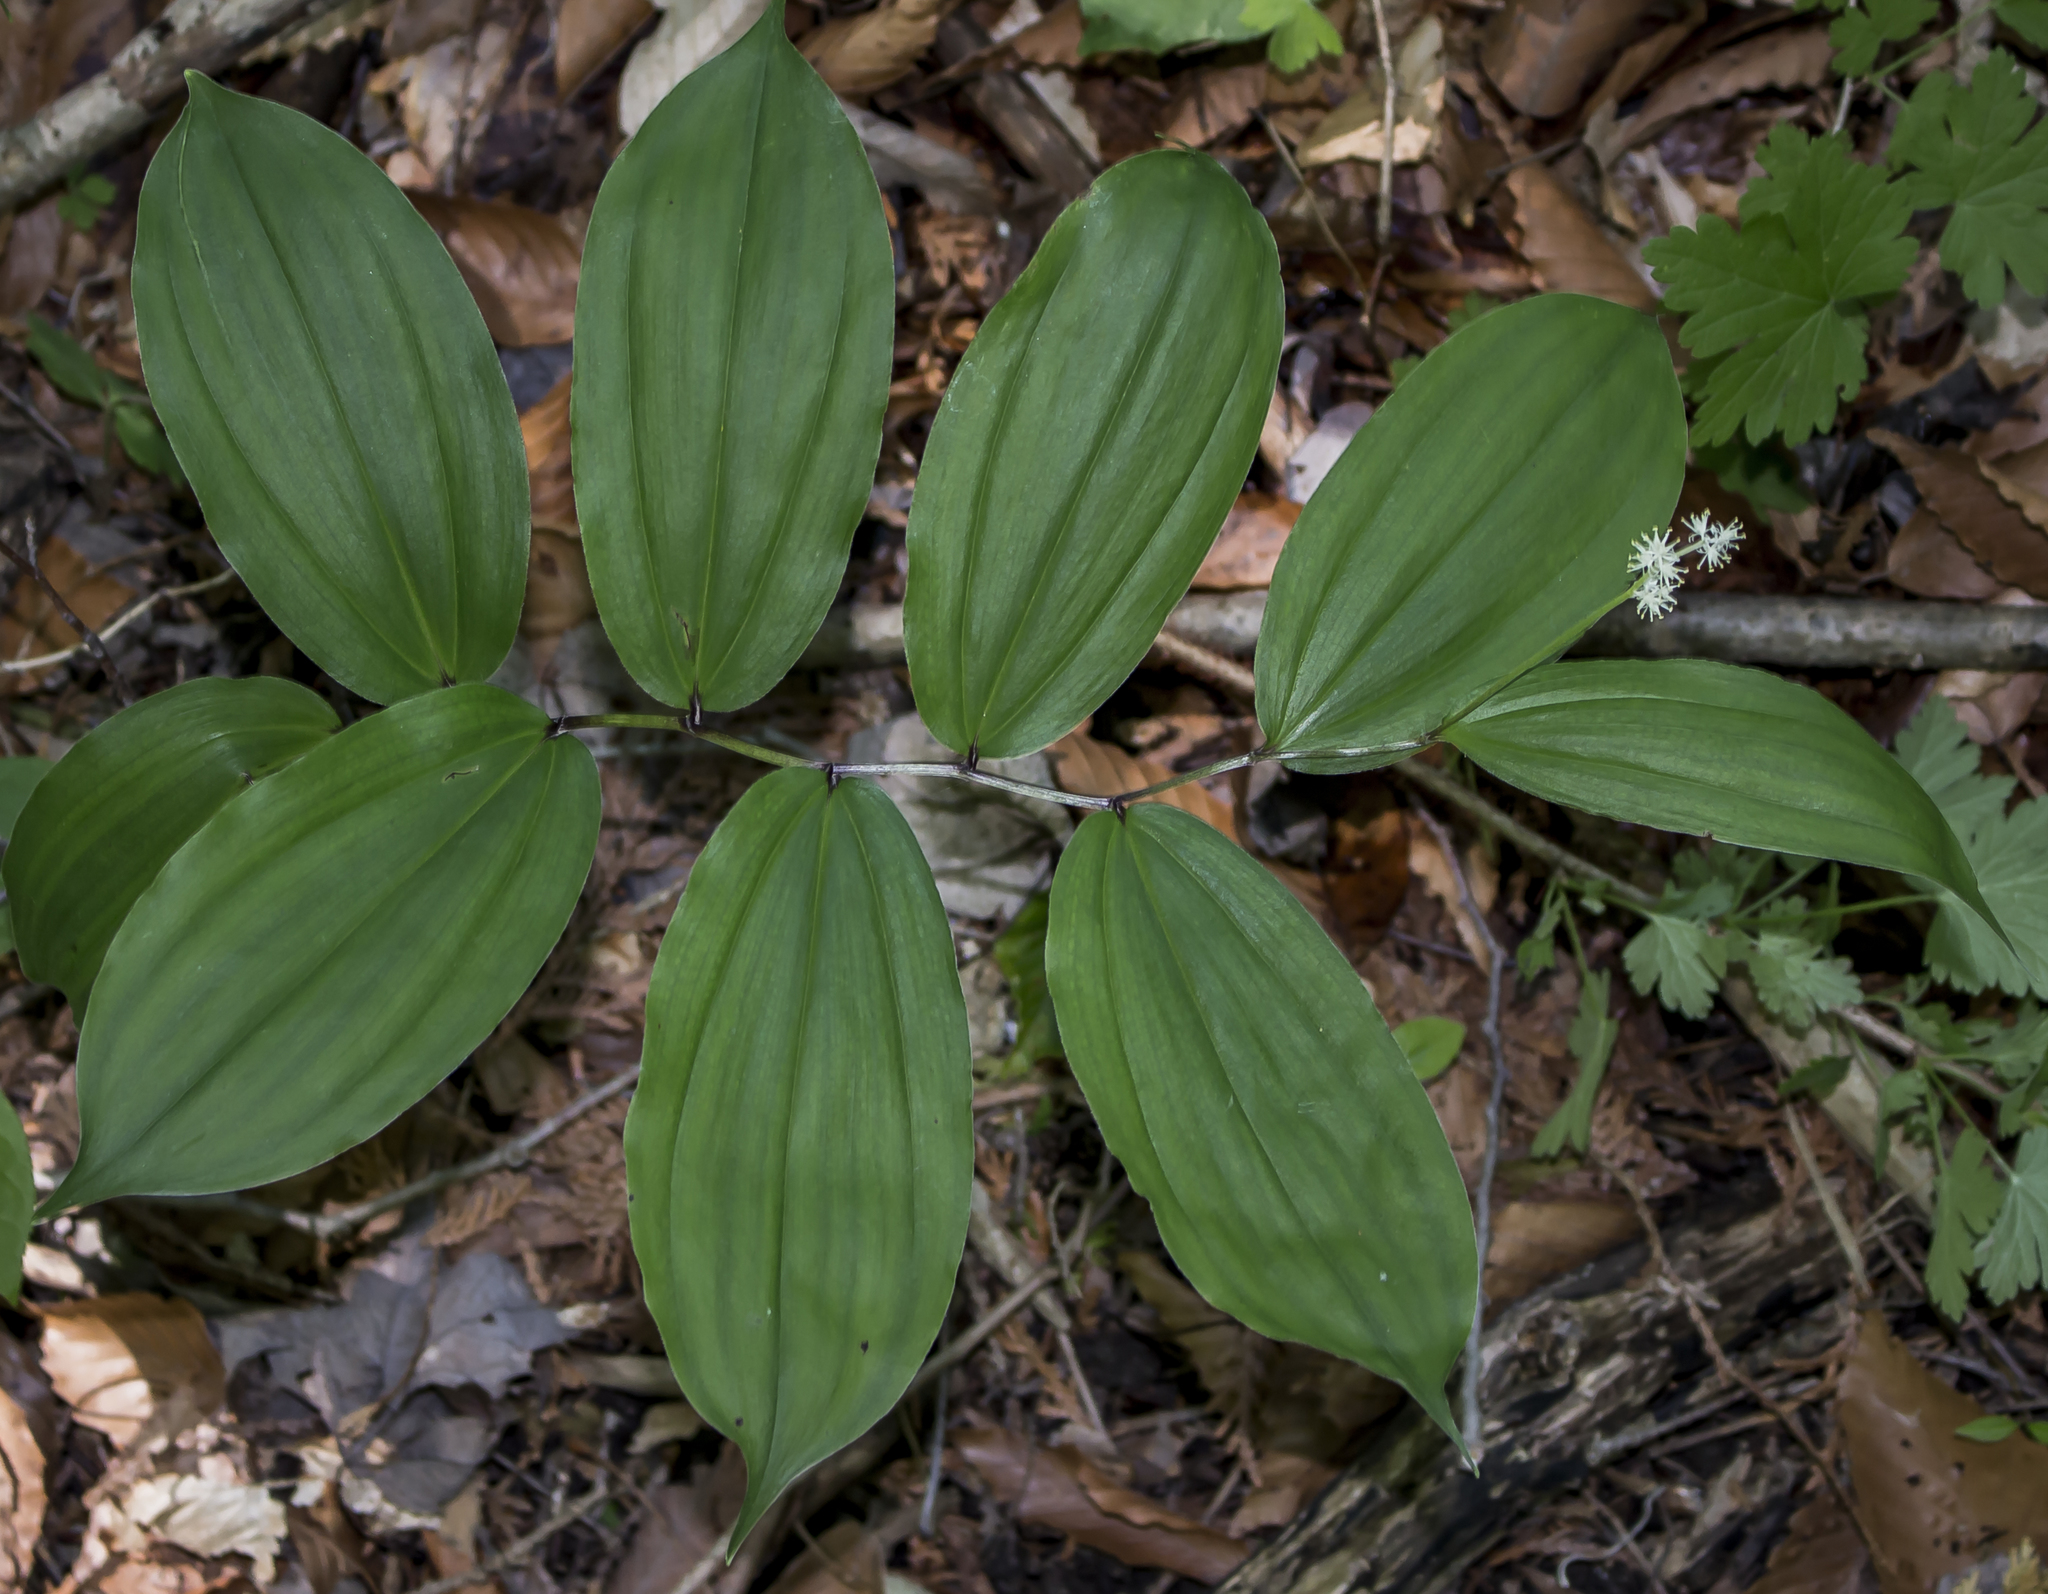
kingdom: Plantae
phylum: Tracheophyta
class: Liliopsida
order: Asparagales
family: Asparagaceae
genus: Maianthemum
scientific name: Maianthemum racemosum
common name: False spikenard
